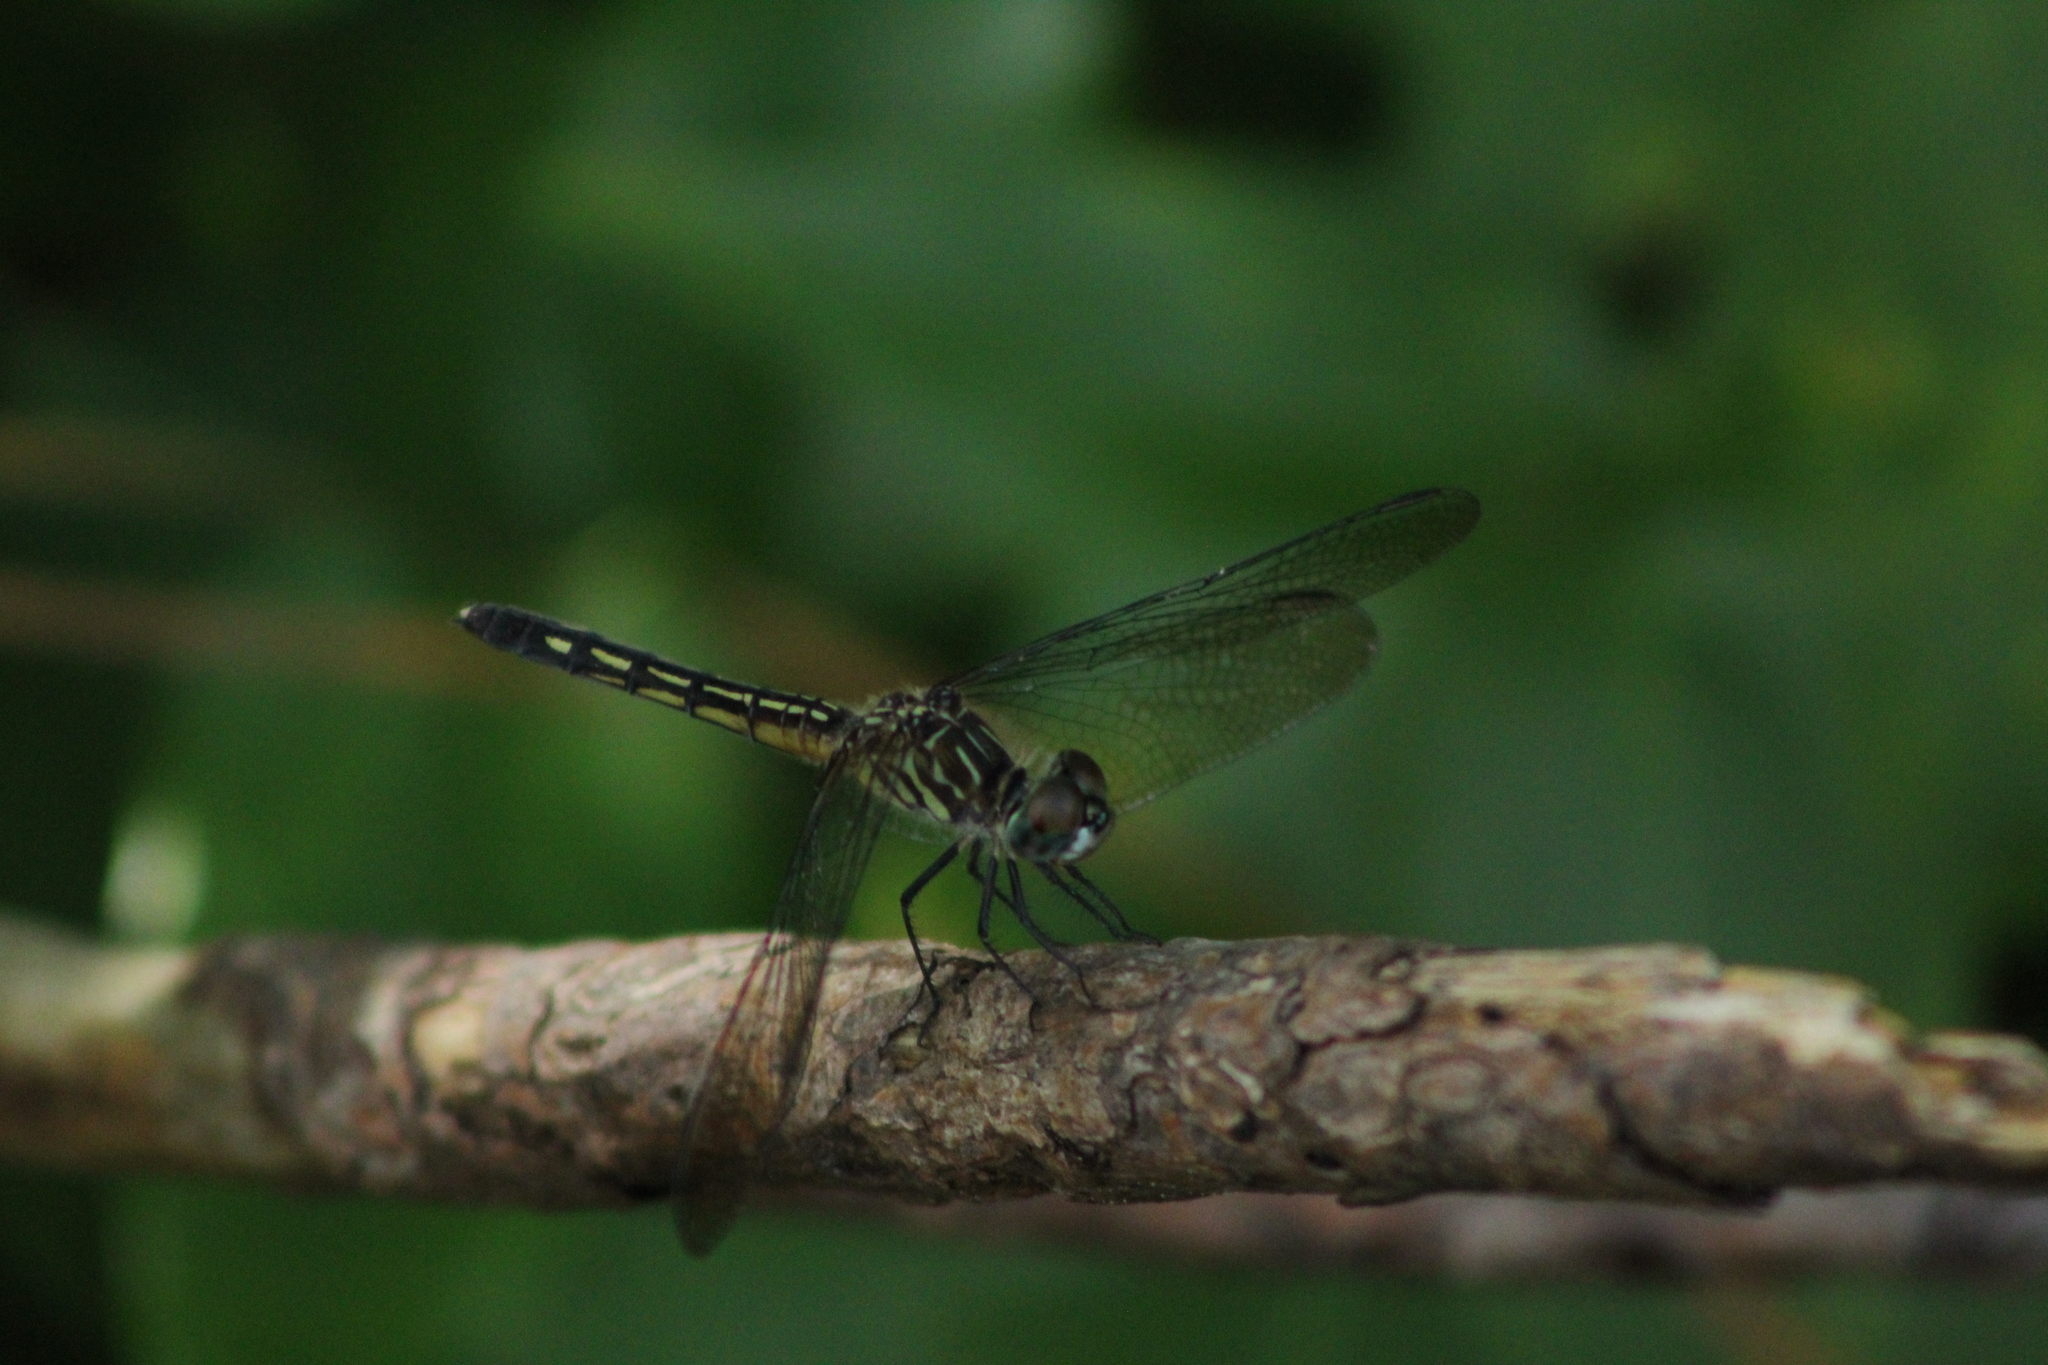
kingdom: Animalia
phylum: Arthropoda
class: Insecta
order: Odonata
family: Libellulidae
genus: Pachydiplax
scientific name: Pachydiplax longipennis
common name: Blue dasher
